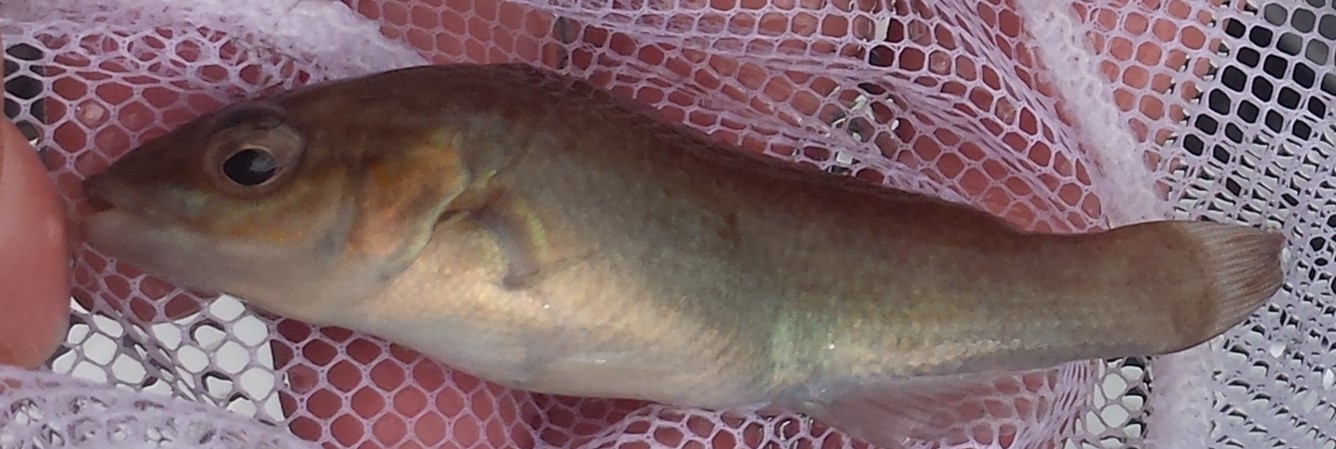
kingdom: Animalia
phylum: Chordata
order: Perciformes
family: Labridae
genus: Tautogolabrus
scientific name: Tautogolabrus adspersus
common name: Cunner
